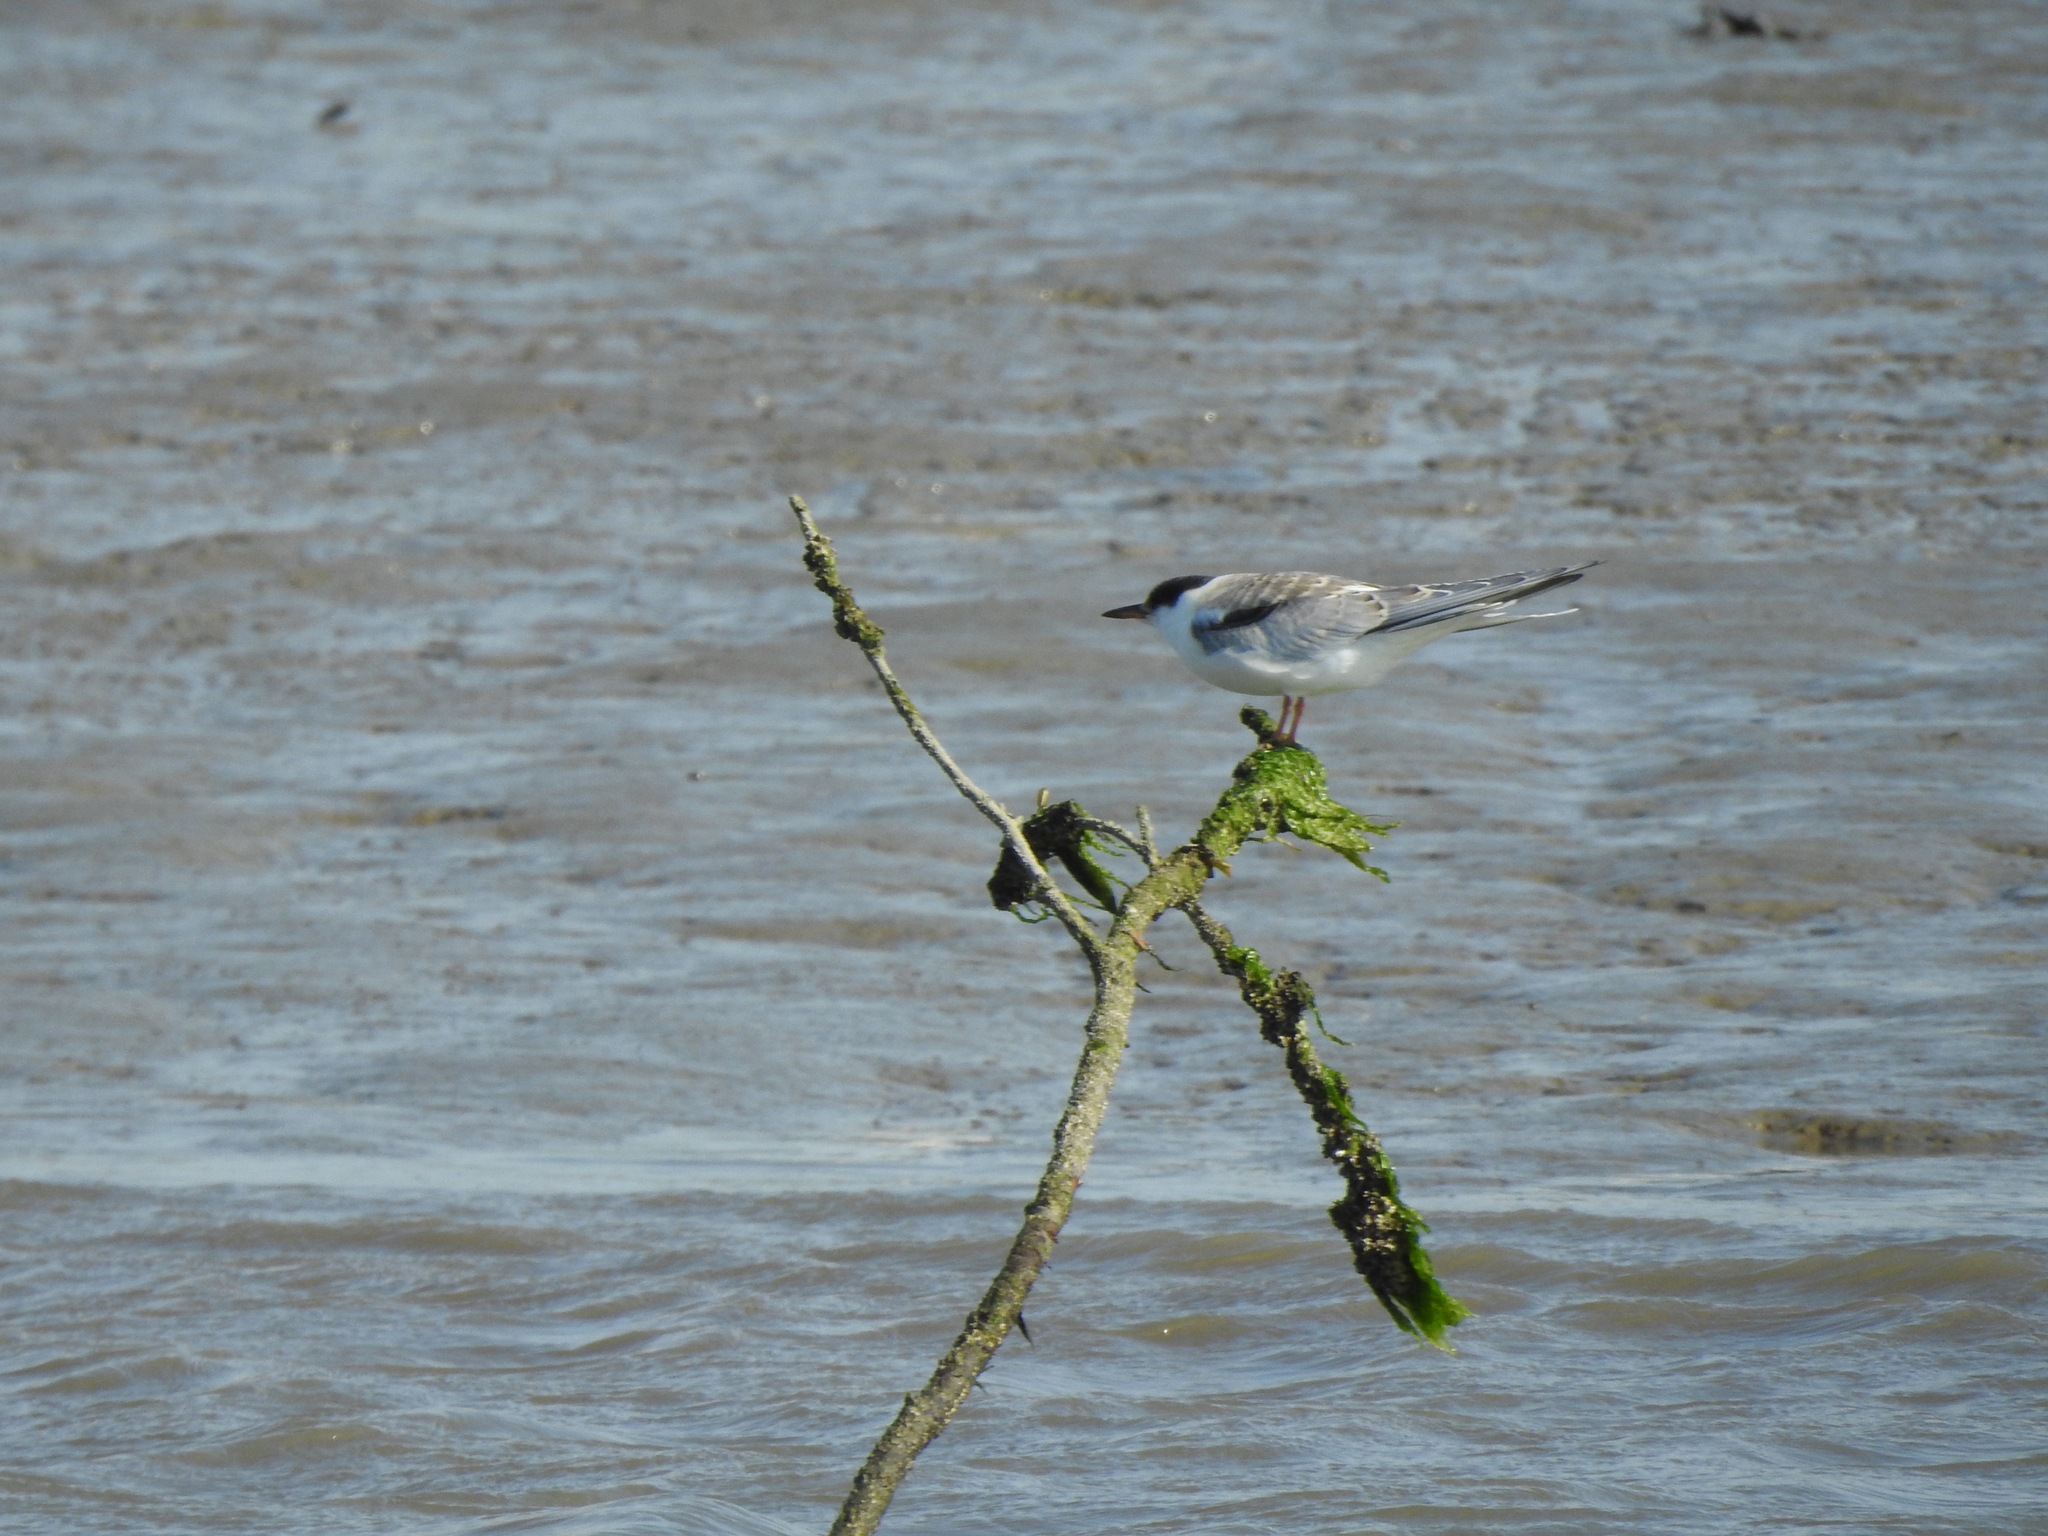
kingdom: Animalia
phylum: Chordata
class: Aves
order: Charadriiformes
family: Laridae
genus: Sterna
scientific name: Sterna hirundo
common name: Common tern
